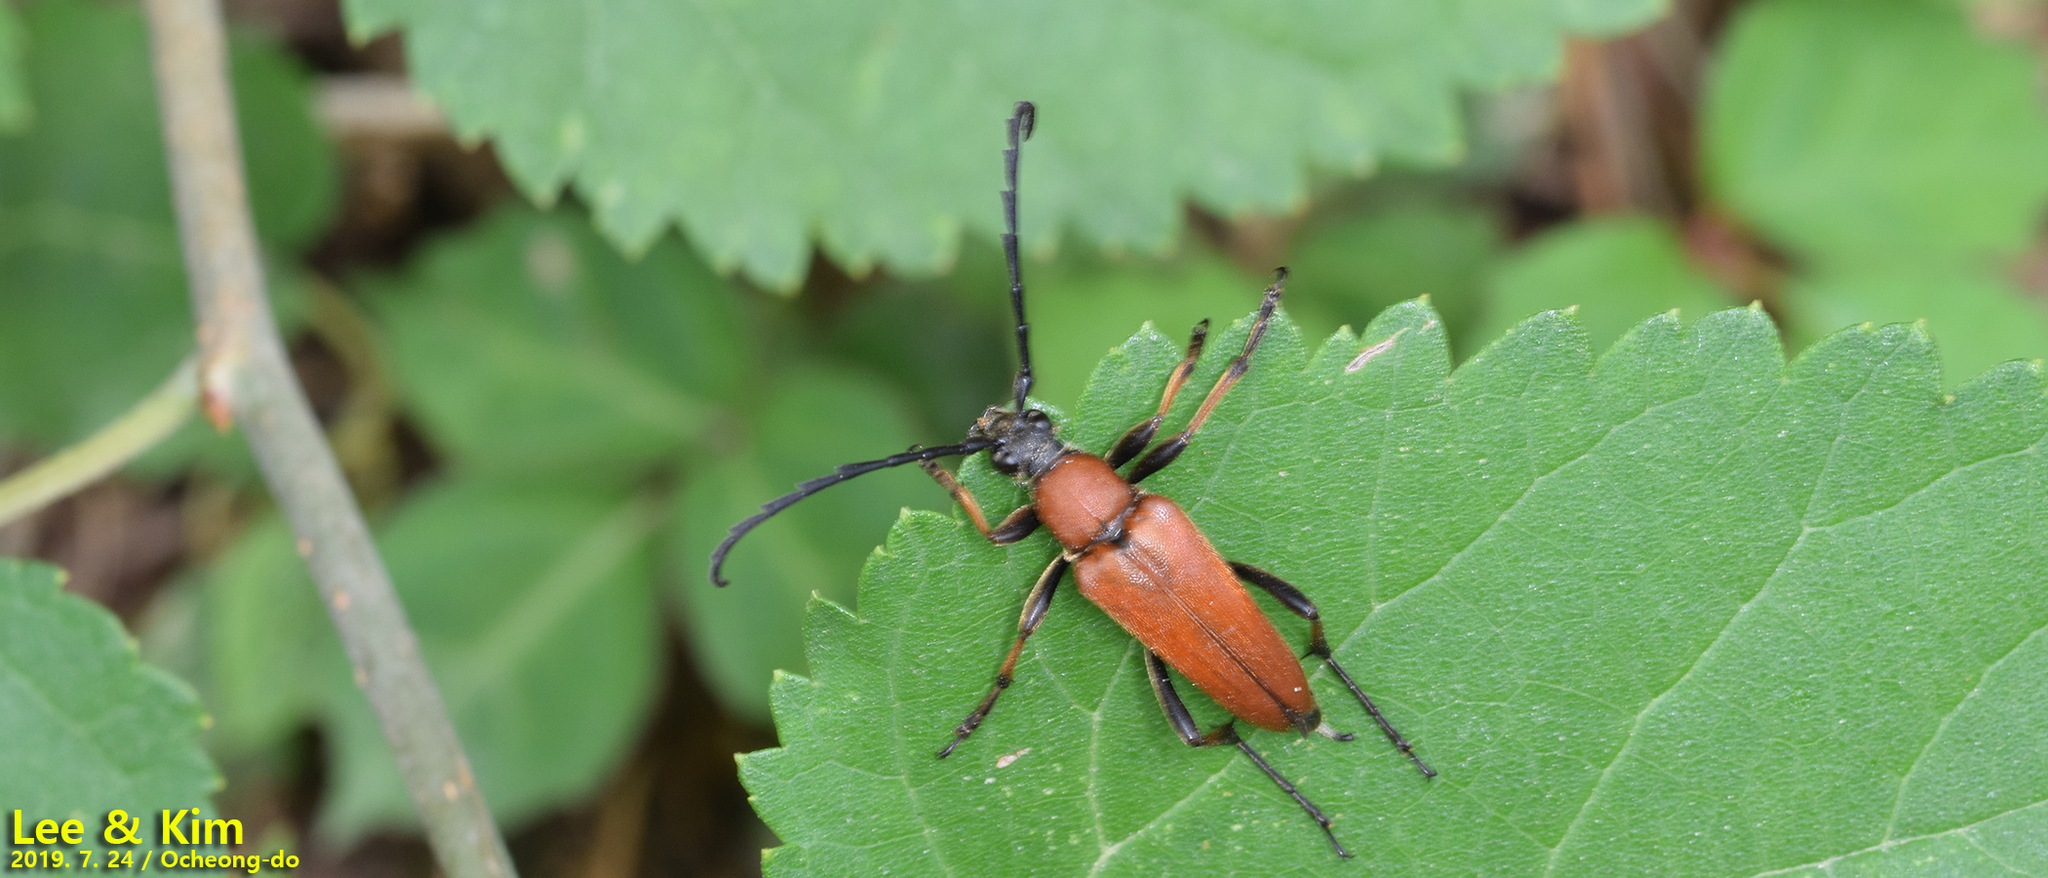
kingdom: Animalia
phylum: Arthropoda
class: Insecta
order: Coleoptera
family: Cerambycidae
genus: Stictoleptura
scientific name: Stictoleptura dichroa
